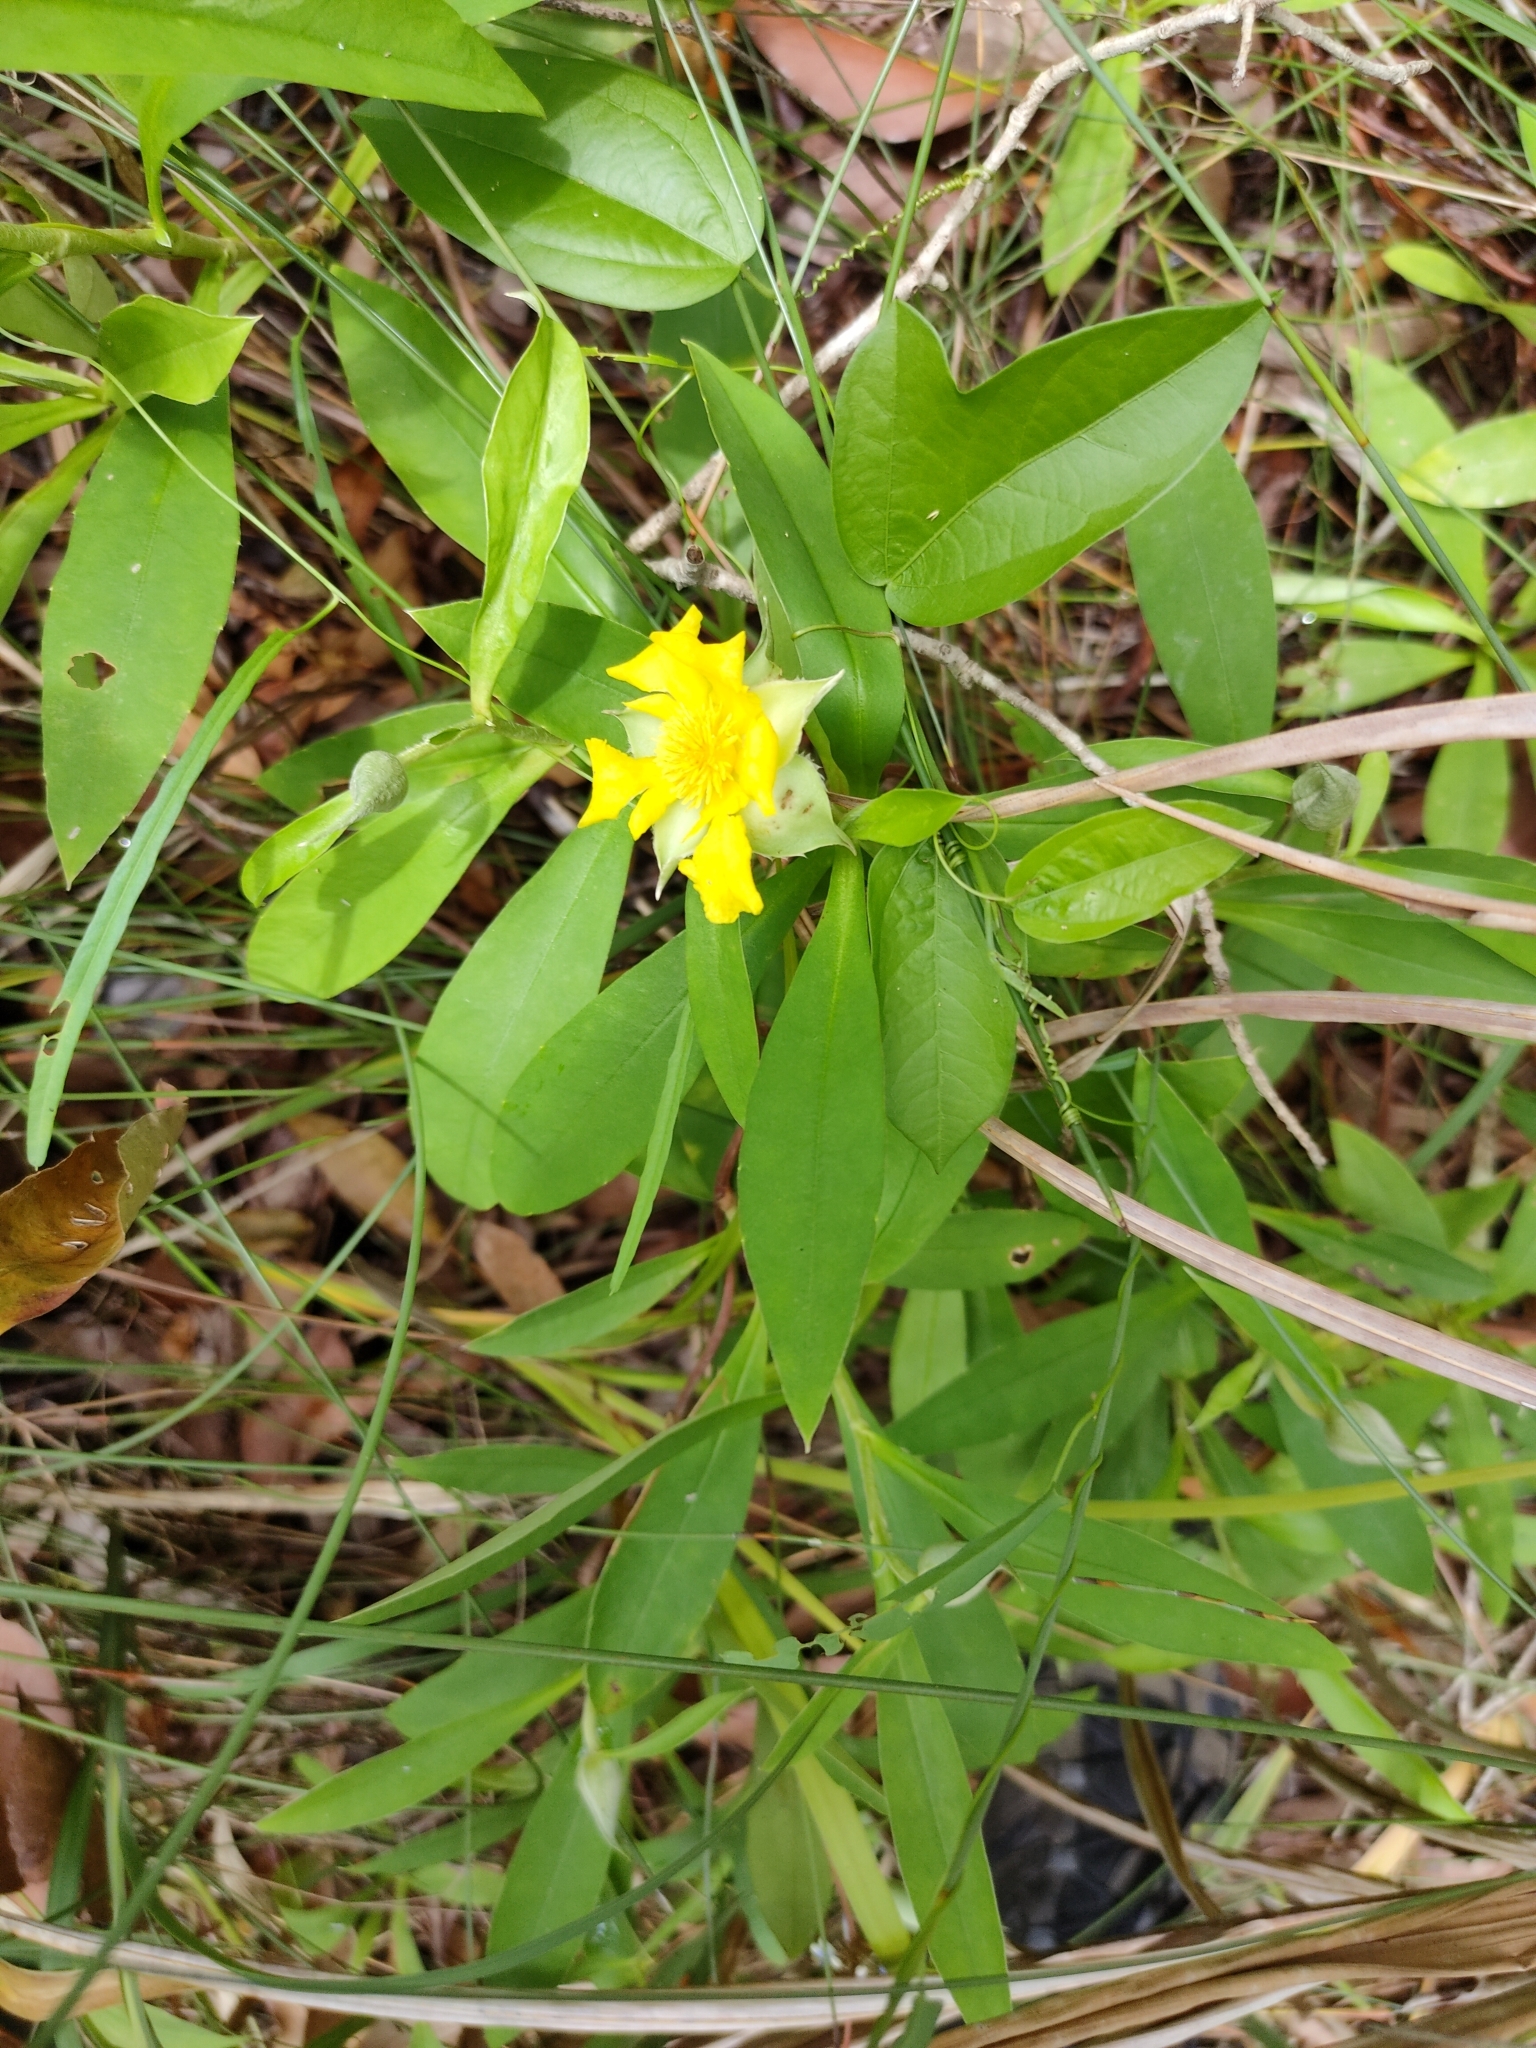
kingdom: Plantae
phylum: Tracheophyta
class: Magnoliopsida
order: Dilleniales
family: Dilleniaceae
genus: Hibbertia
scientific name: Hibbertia scandens
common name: Climbing guinea-flower
